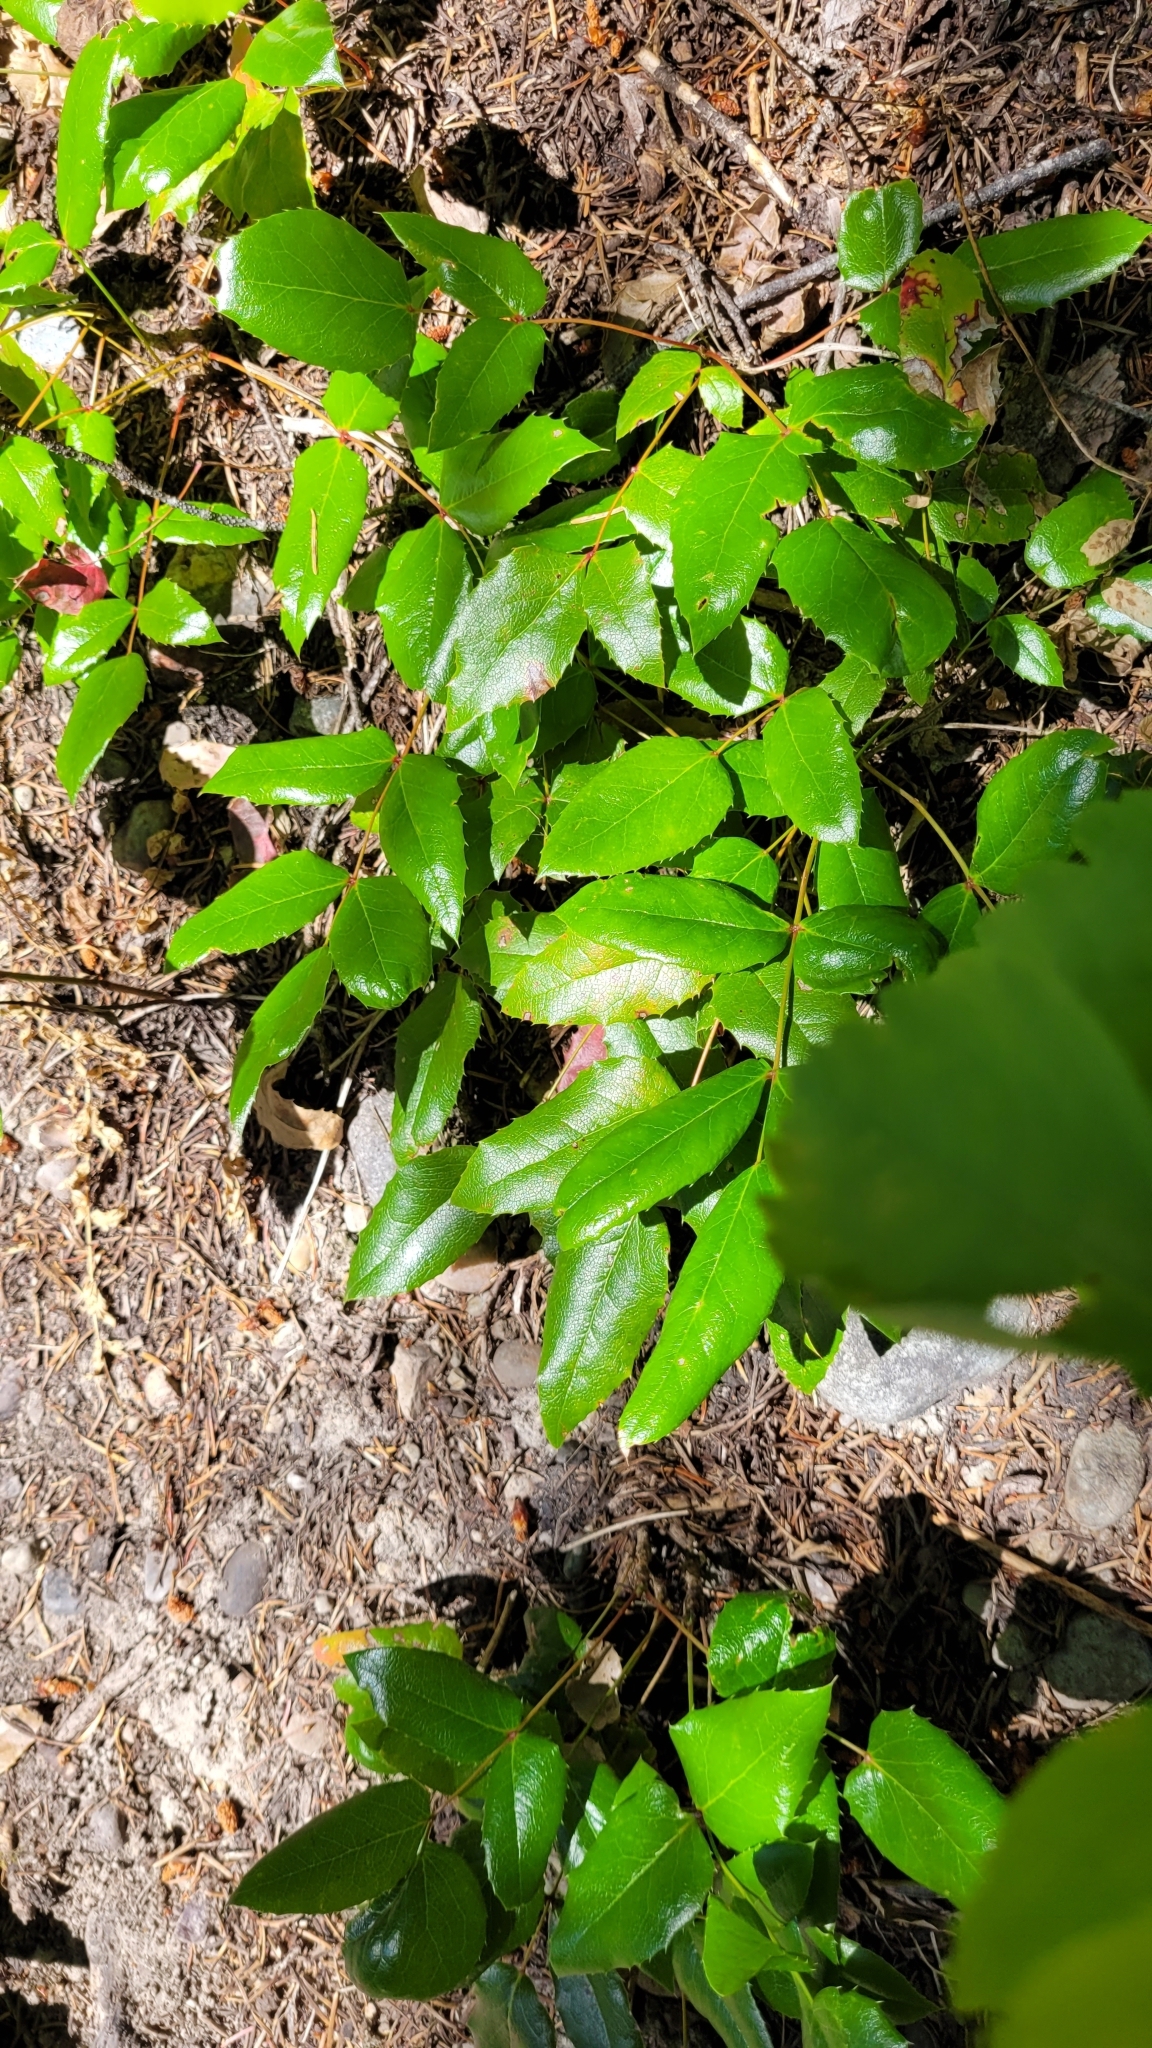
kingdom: Plantae
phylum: Tracheophyta
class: Magnoliopsida
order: Ranunculales
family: Berberidaceae
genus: Mahonia
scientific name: Mahonia aquifolium
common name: Oregon-grape
